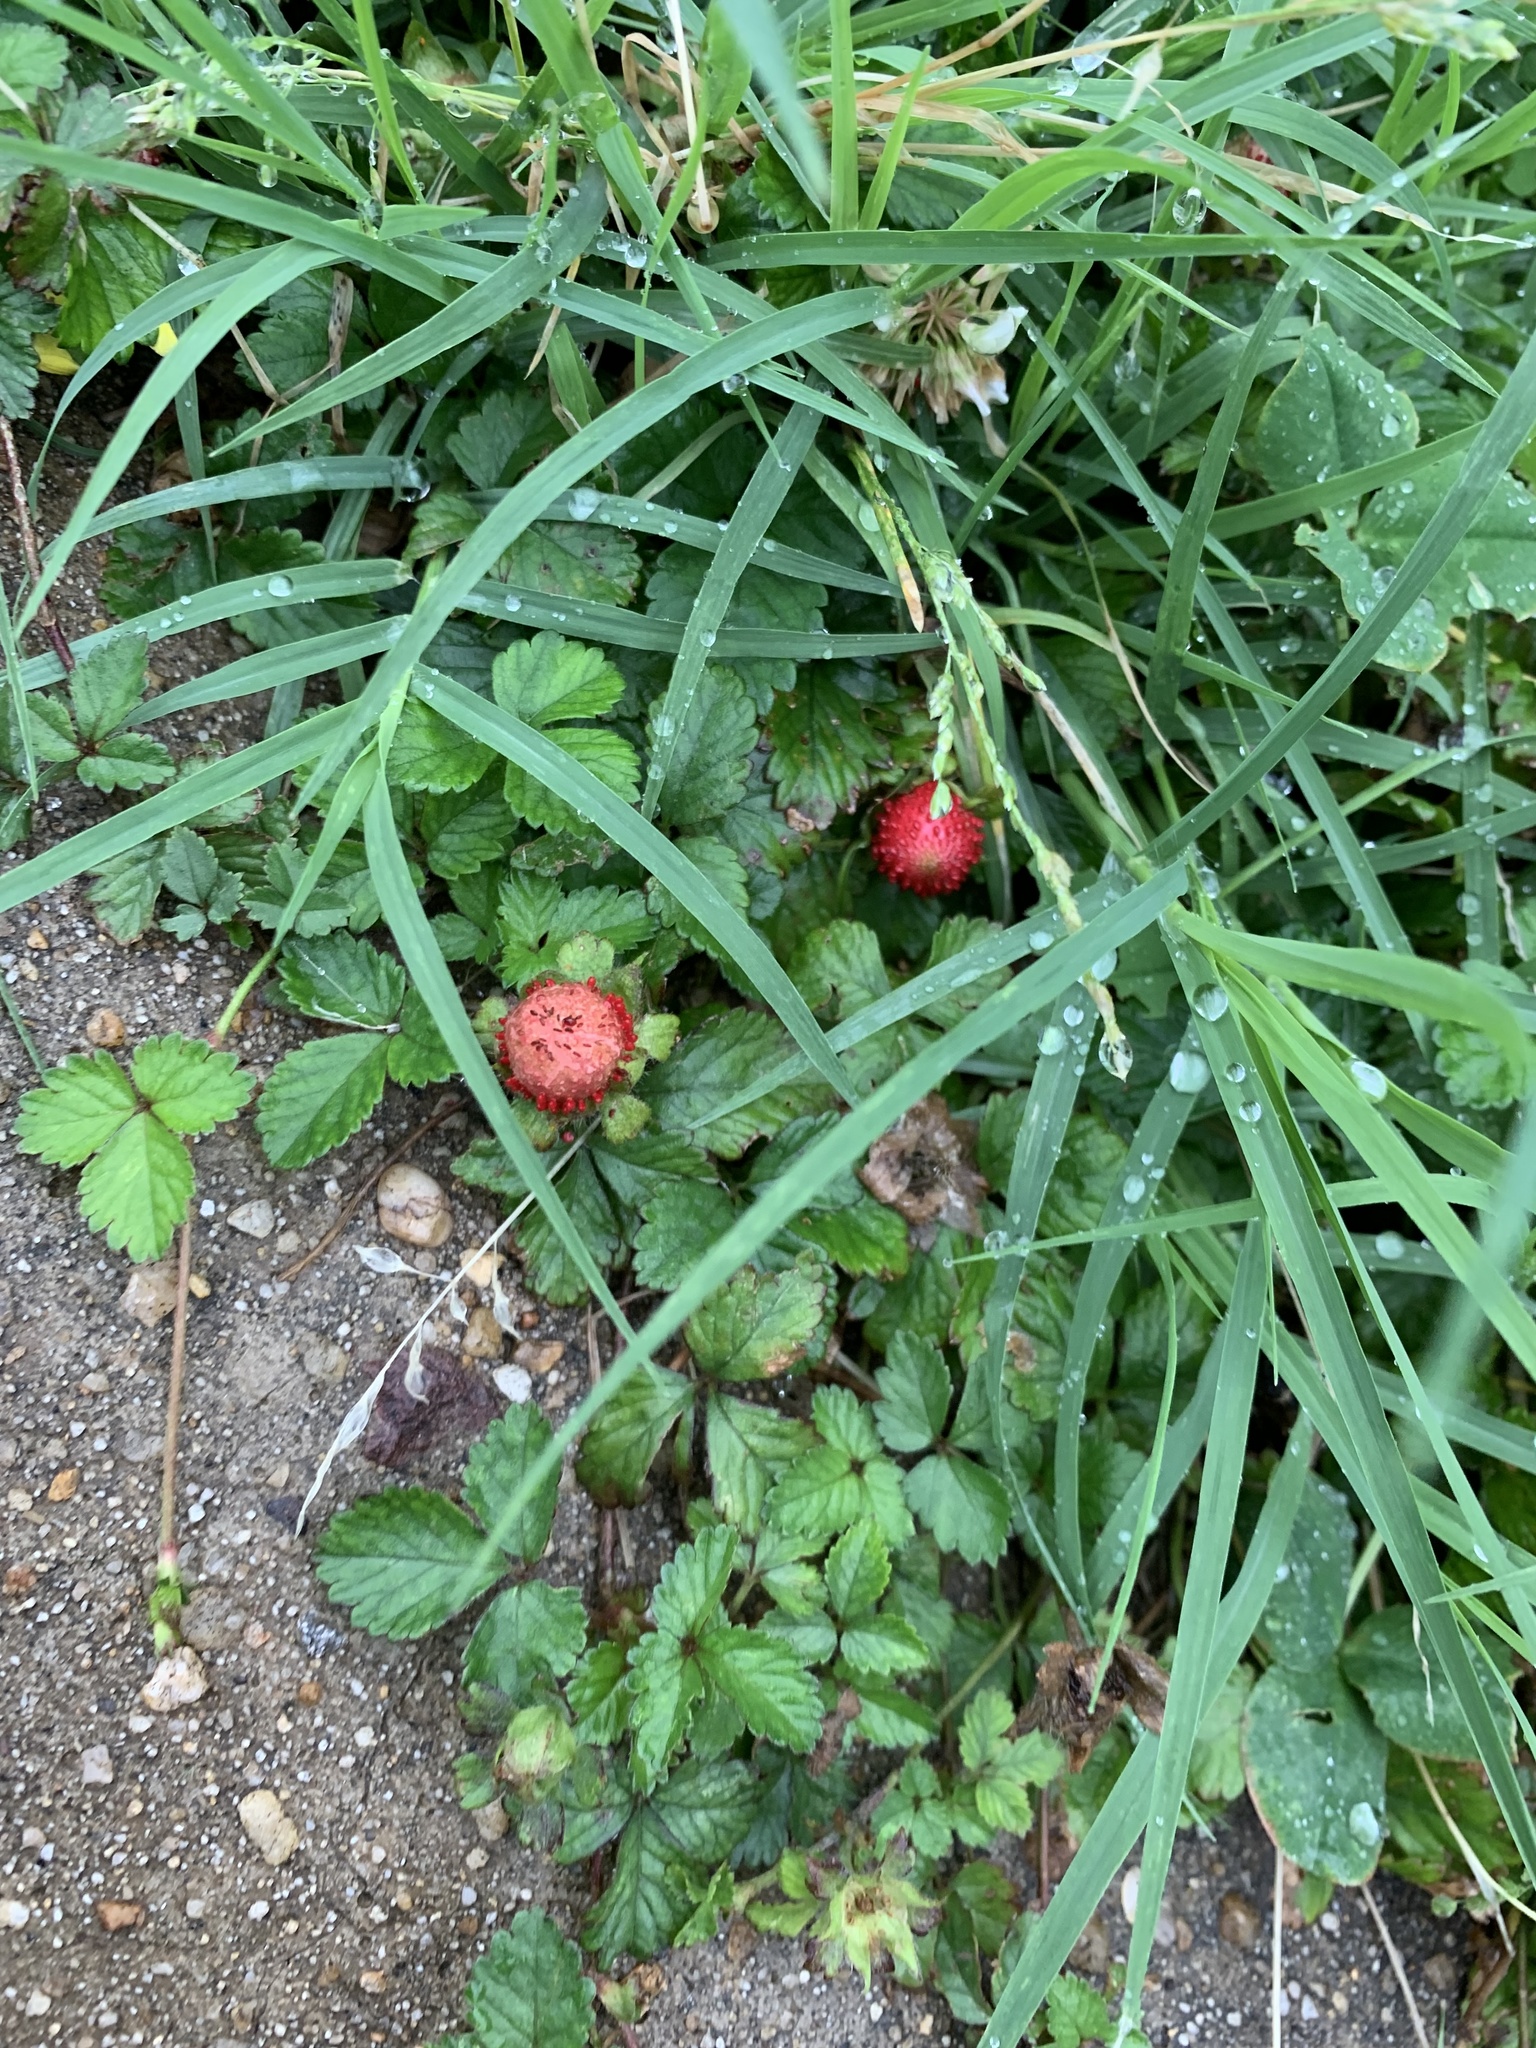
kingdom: Plantae
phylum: Tracheophyta
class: Magnoliopsida
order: Rosales
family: Rosaceae
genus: Potentilla
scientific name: Potentilla indica
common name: Yellow-flowered strawberry
